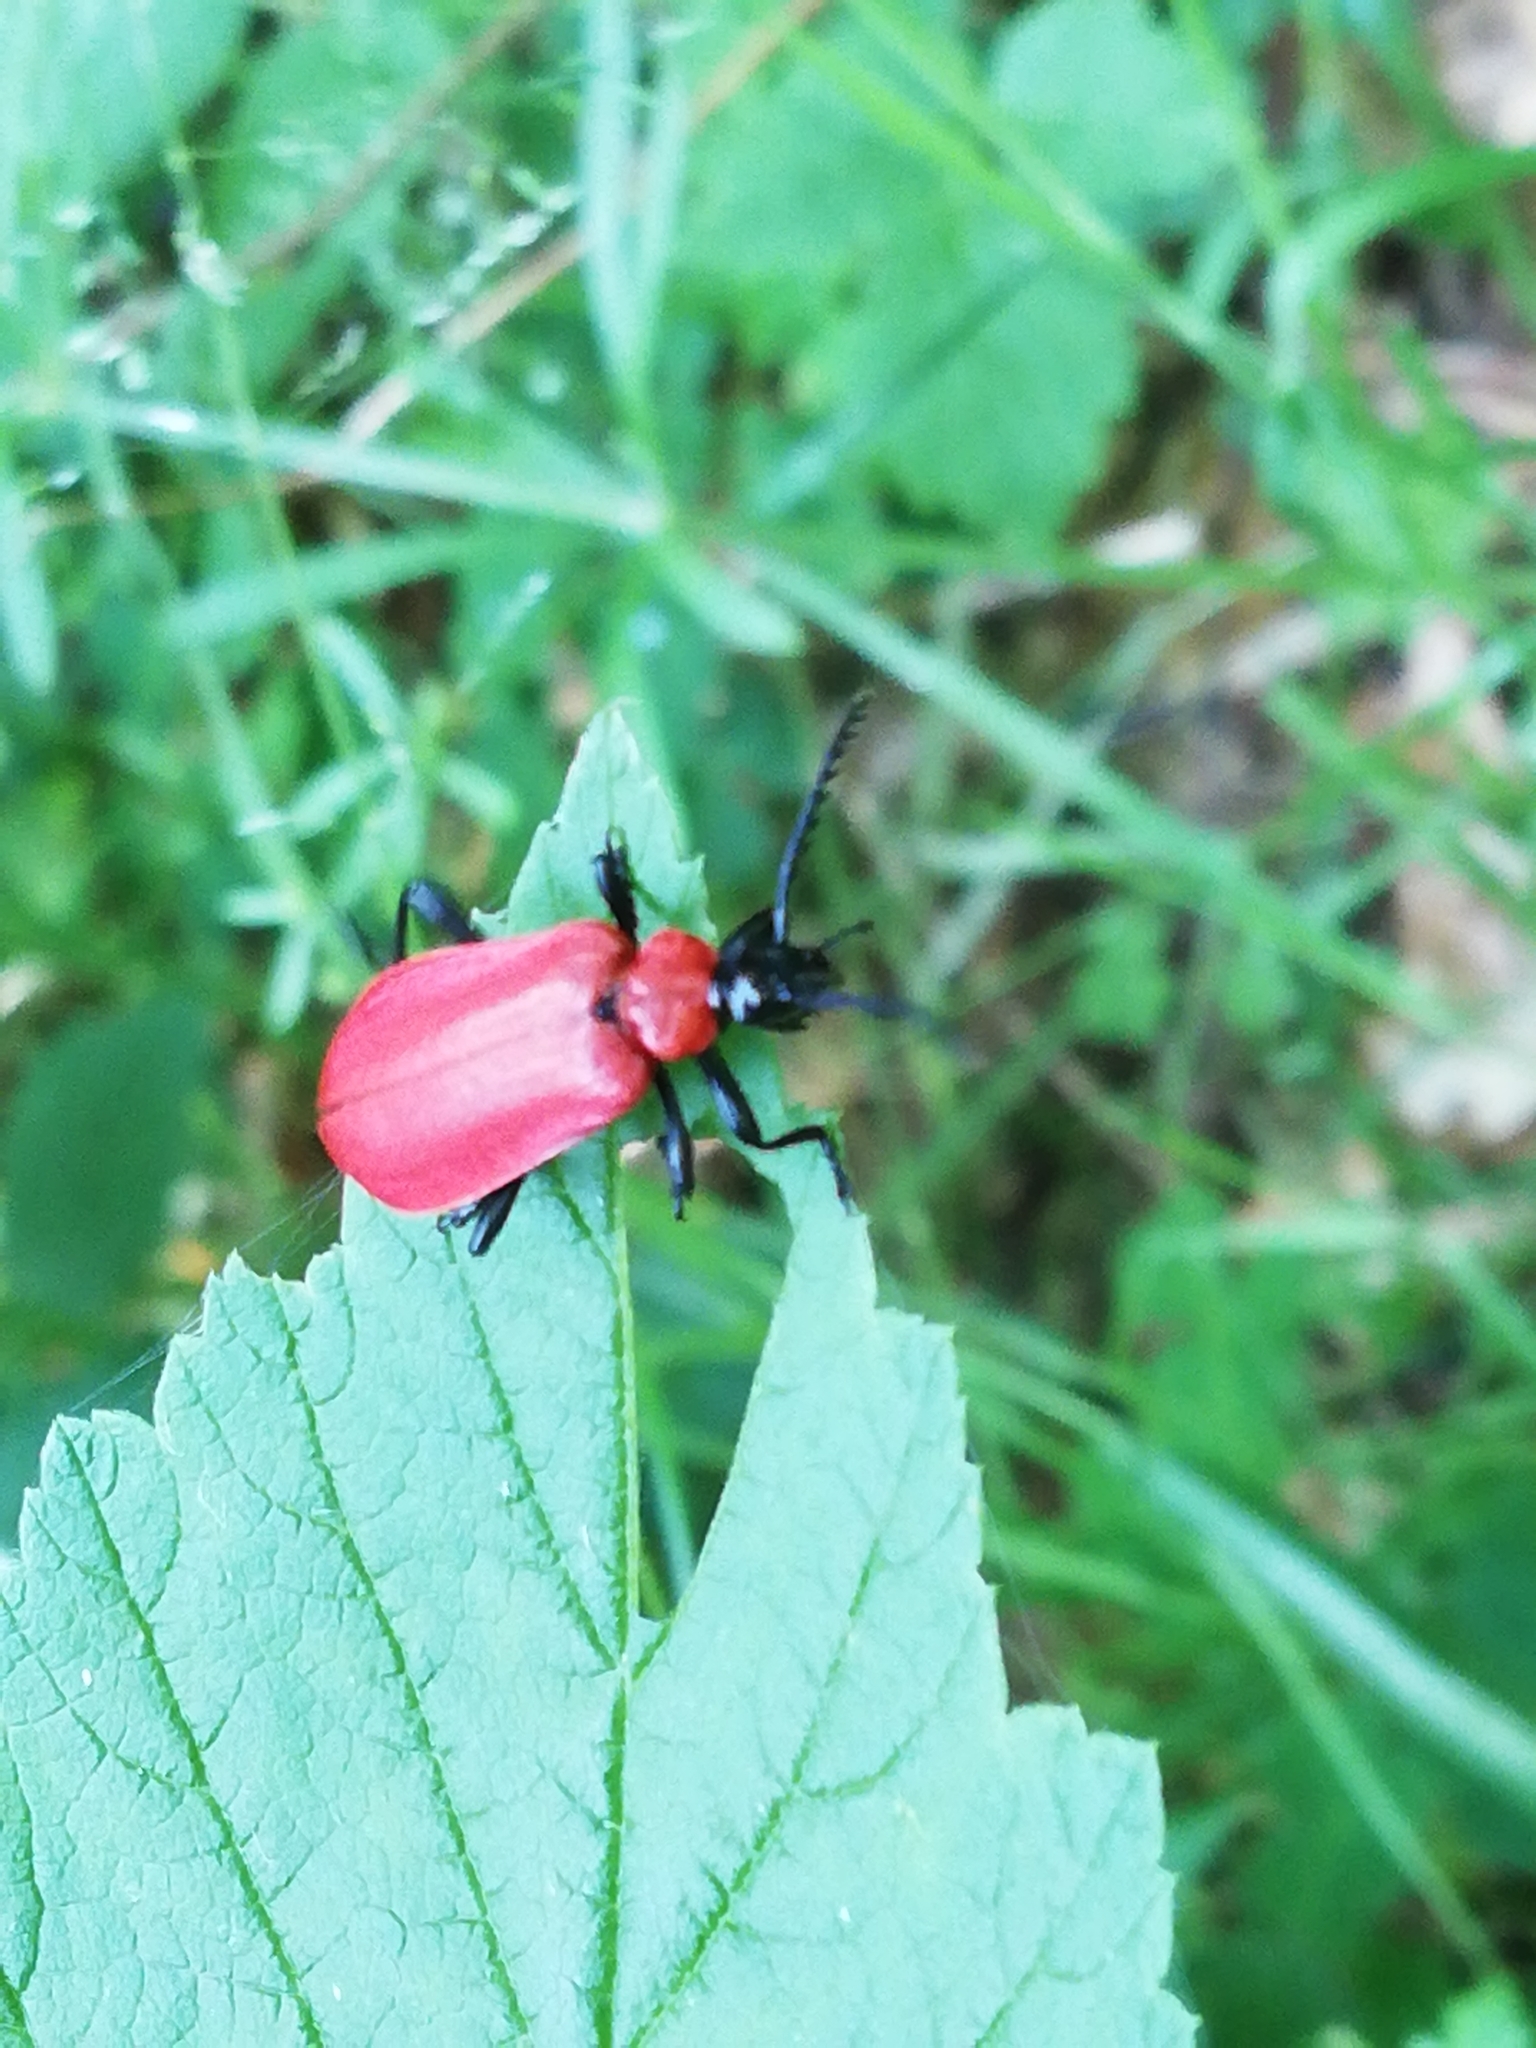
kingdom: Animalia
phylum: Arthropoda
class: Insecta
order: Coleoptera
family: Pyrochroidae
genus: Pyrochroa
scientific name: Pyrochroa coccinea
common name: Black-headed cardinal beetle
